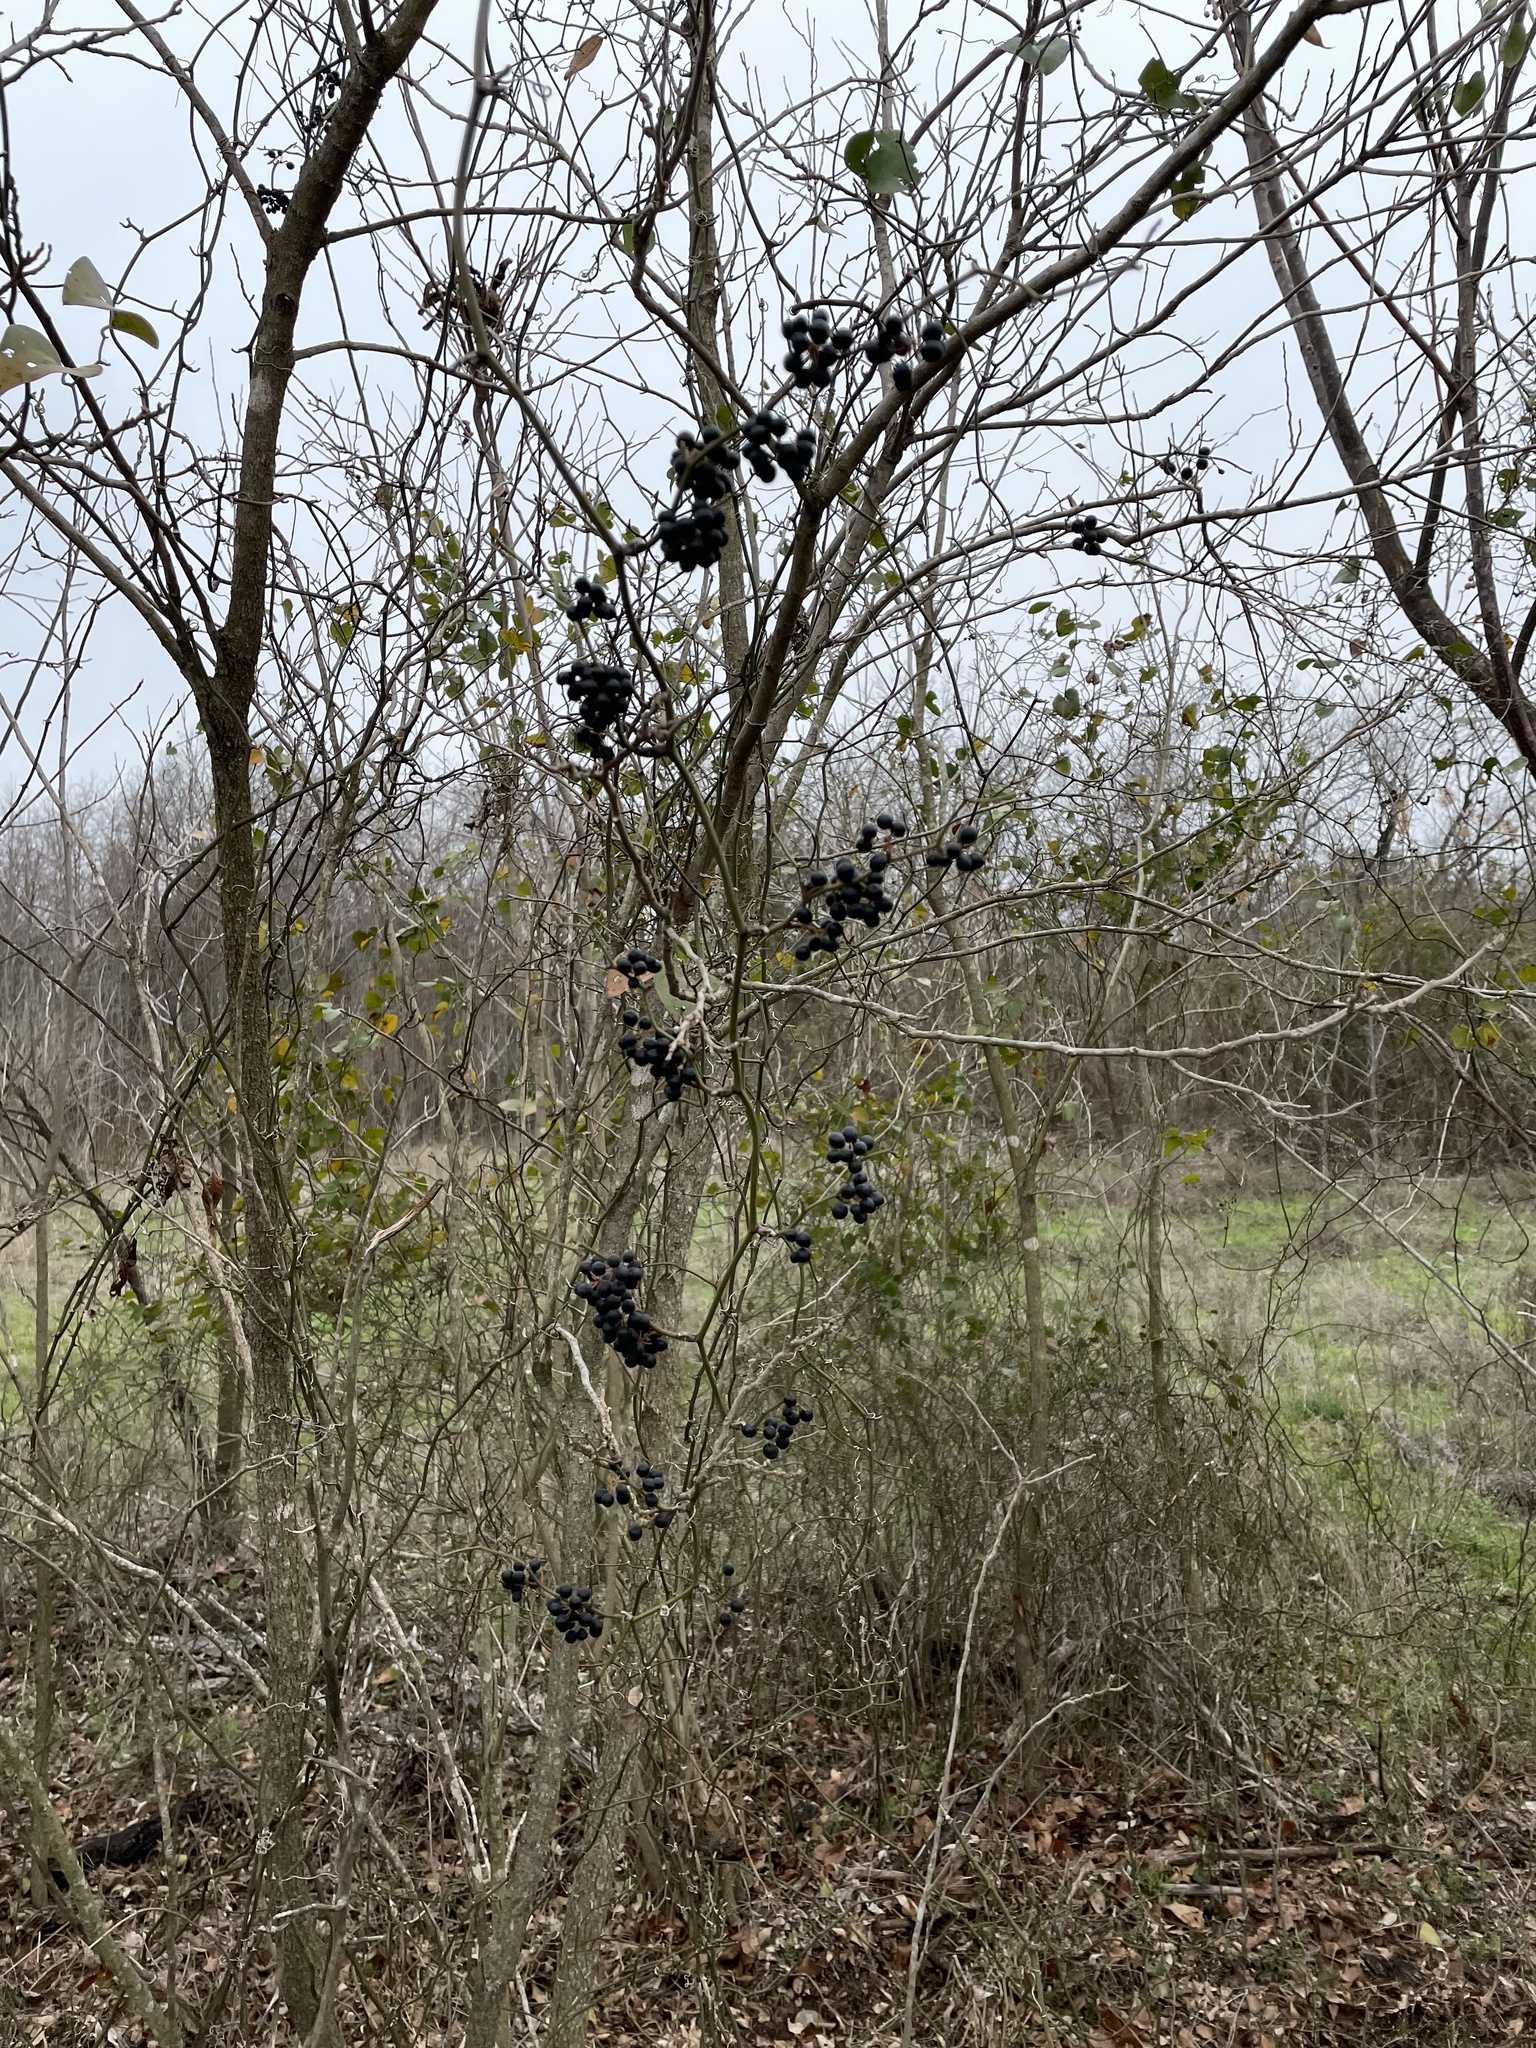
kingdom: Plantae
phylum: Tracheophyta
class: Liliopsida
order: Liliales
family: Smilacaceae
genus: Smilax
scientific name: Smilax bona-nox
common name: Catbrier
